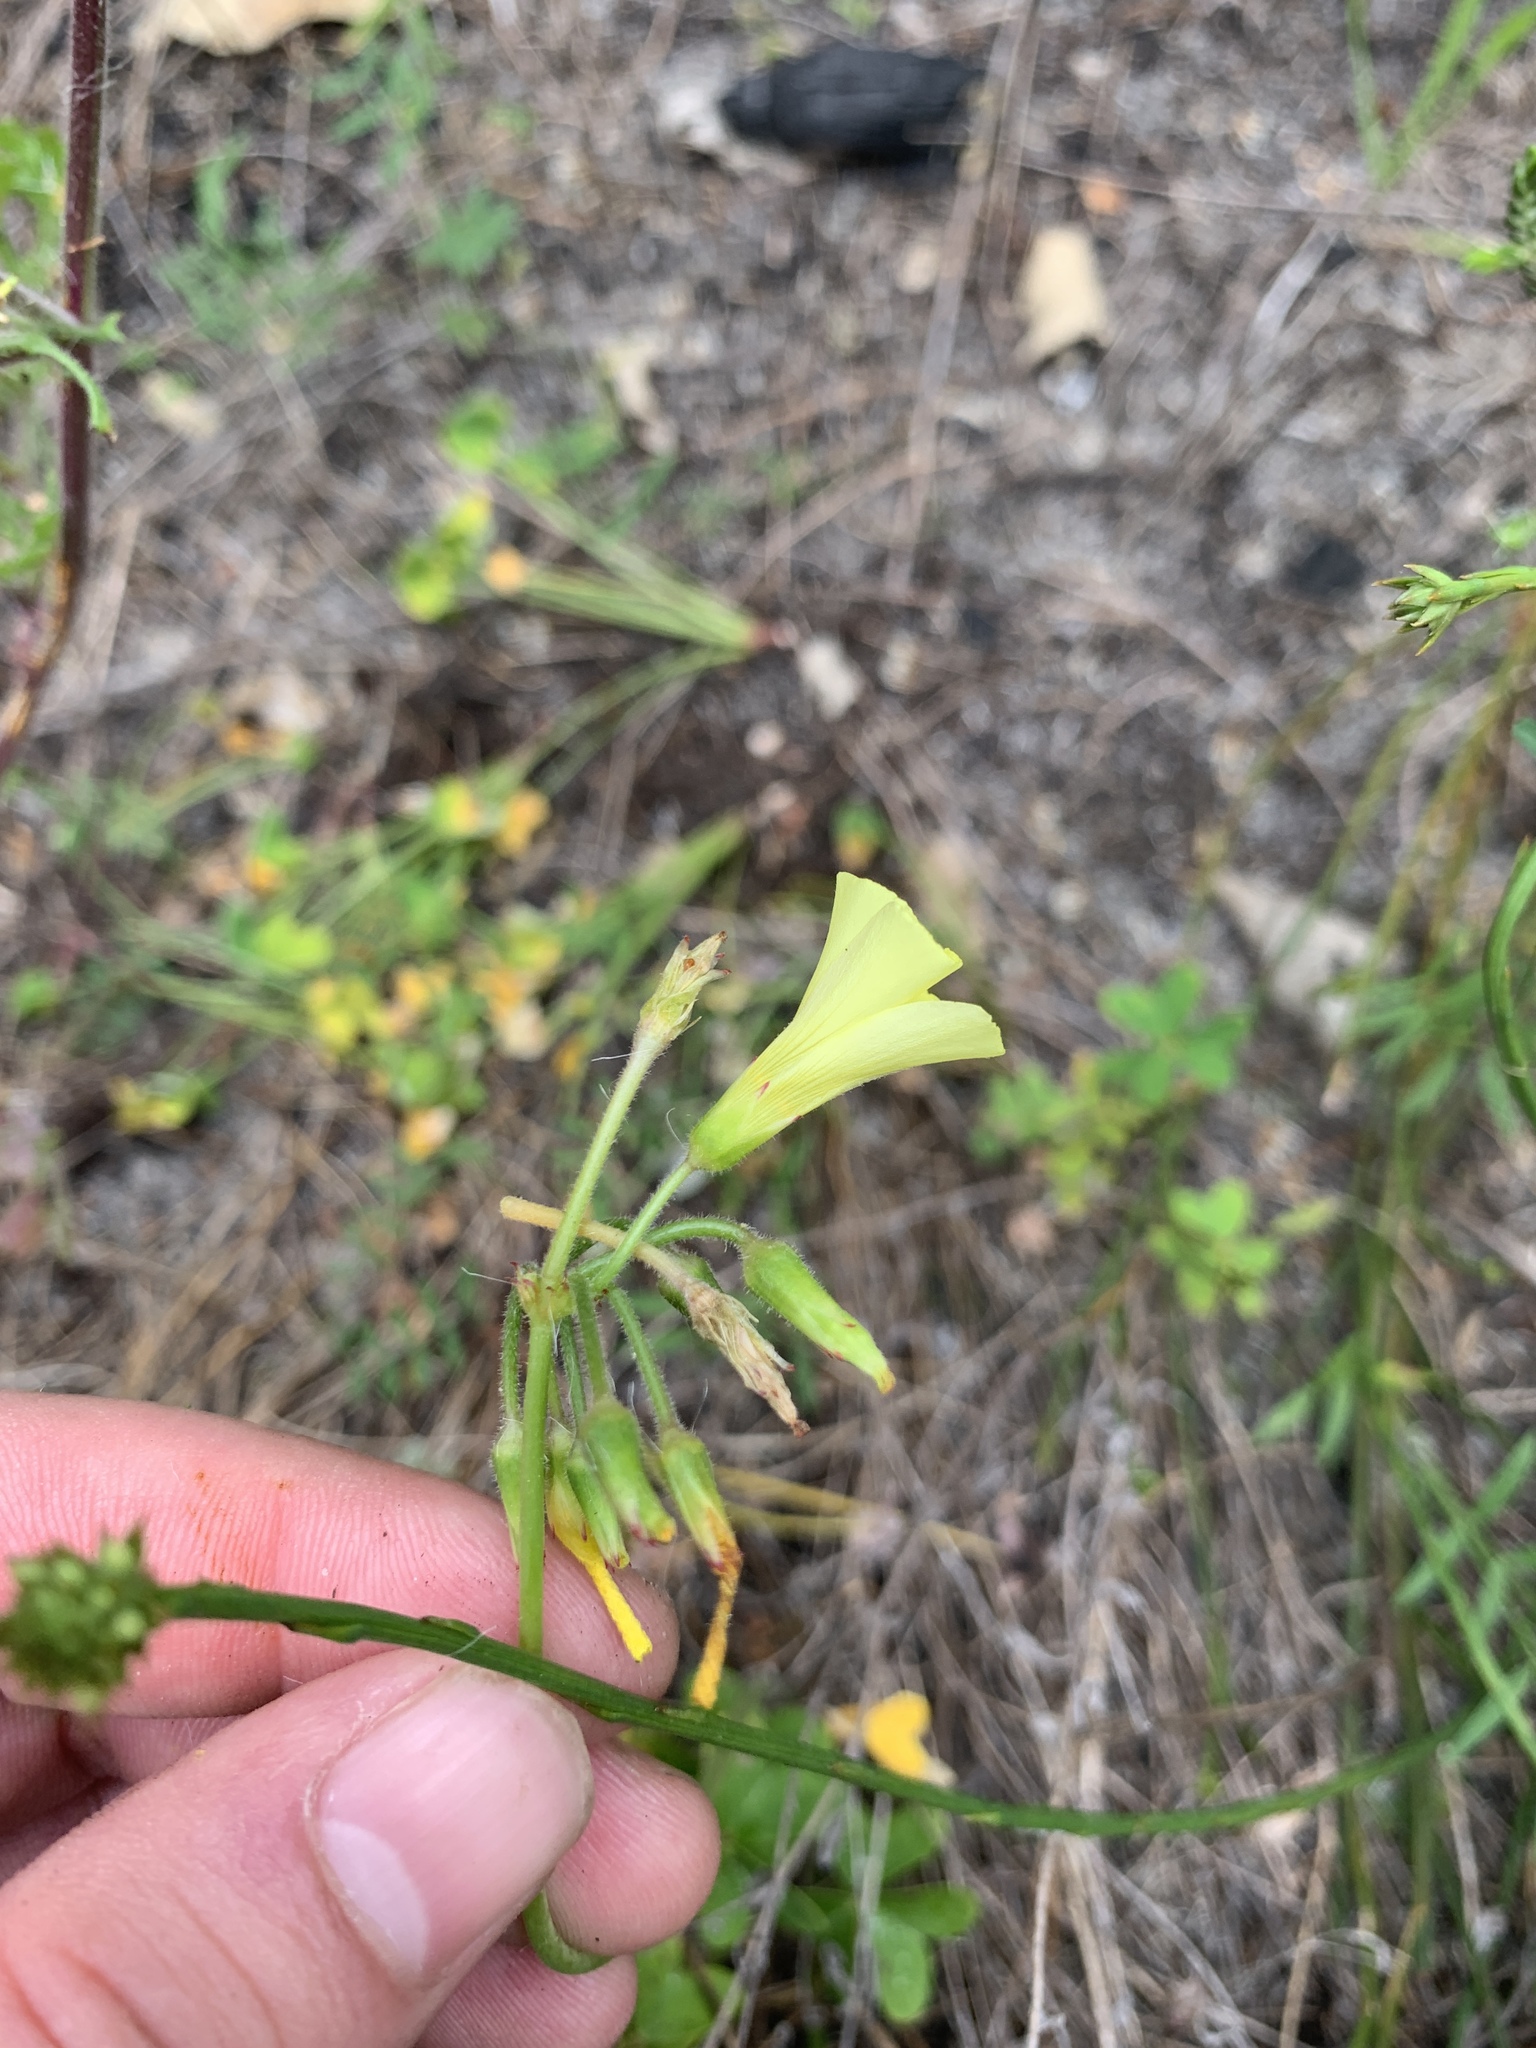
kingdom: Plantae
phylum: Tracheophyta
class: Magnoliopsida
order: Oxalidales
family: Oxalidaceae
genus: Oxalis
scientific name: Oxalis pes-caprae
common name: Bermuda-buttercup
